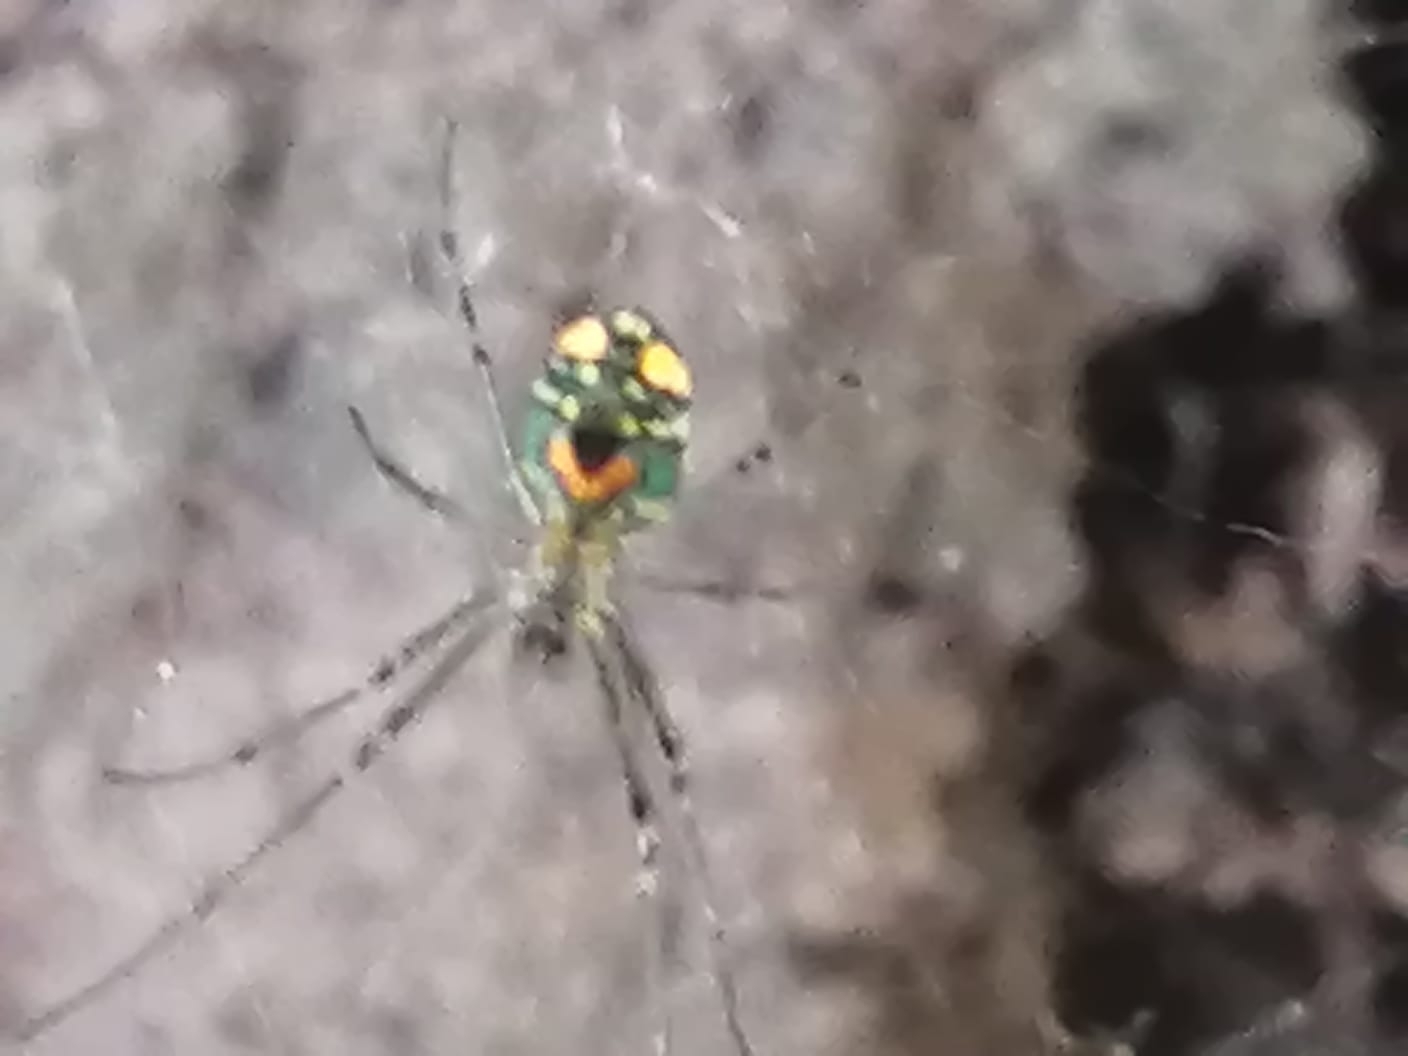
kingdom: Animalia
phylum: Arthropoda
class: Arachnida
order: Araneae
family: Tetragnathidae
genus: Leucauge
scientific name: Leucauge argyrobapta
